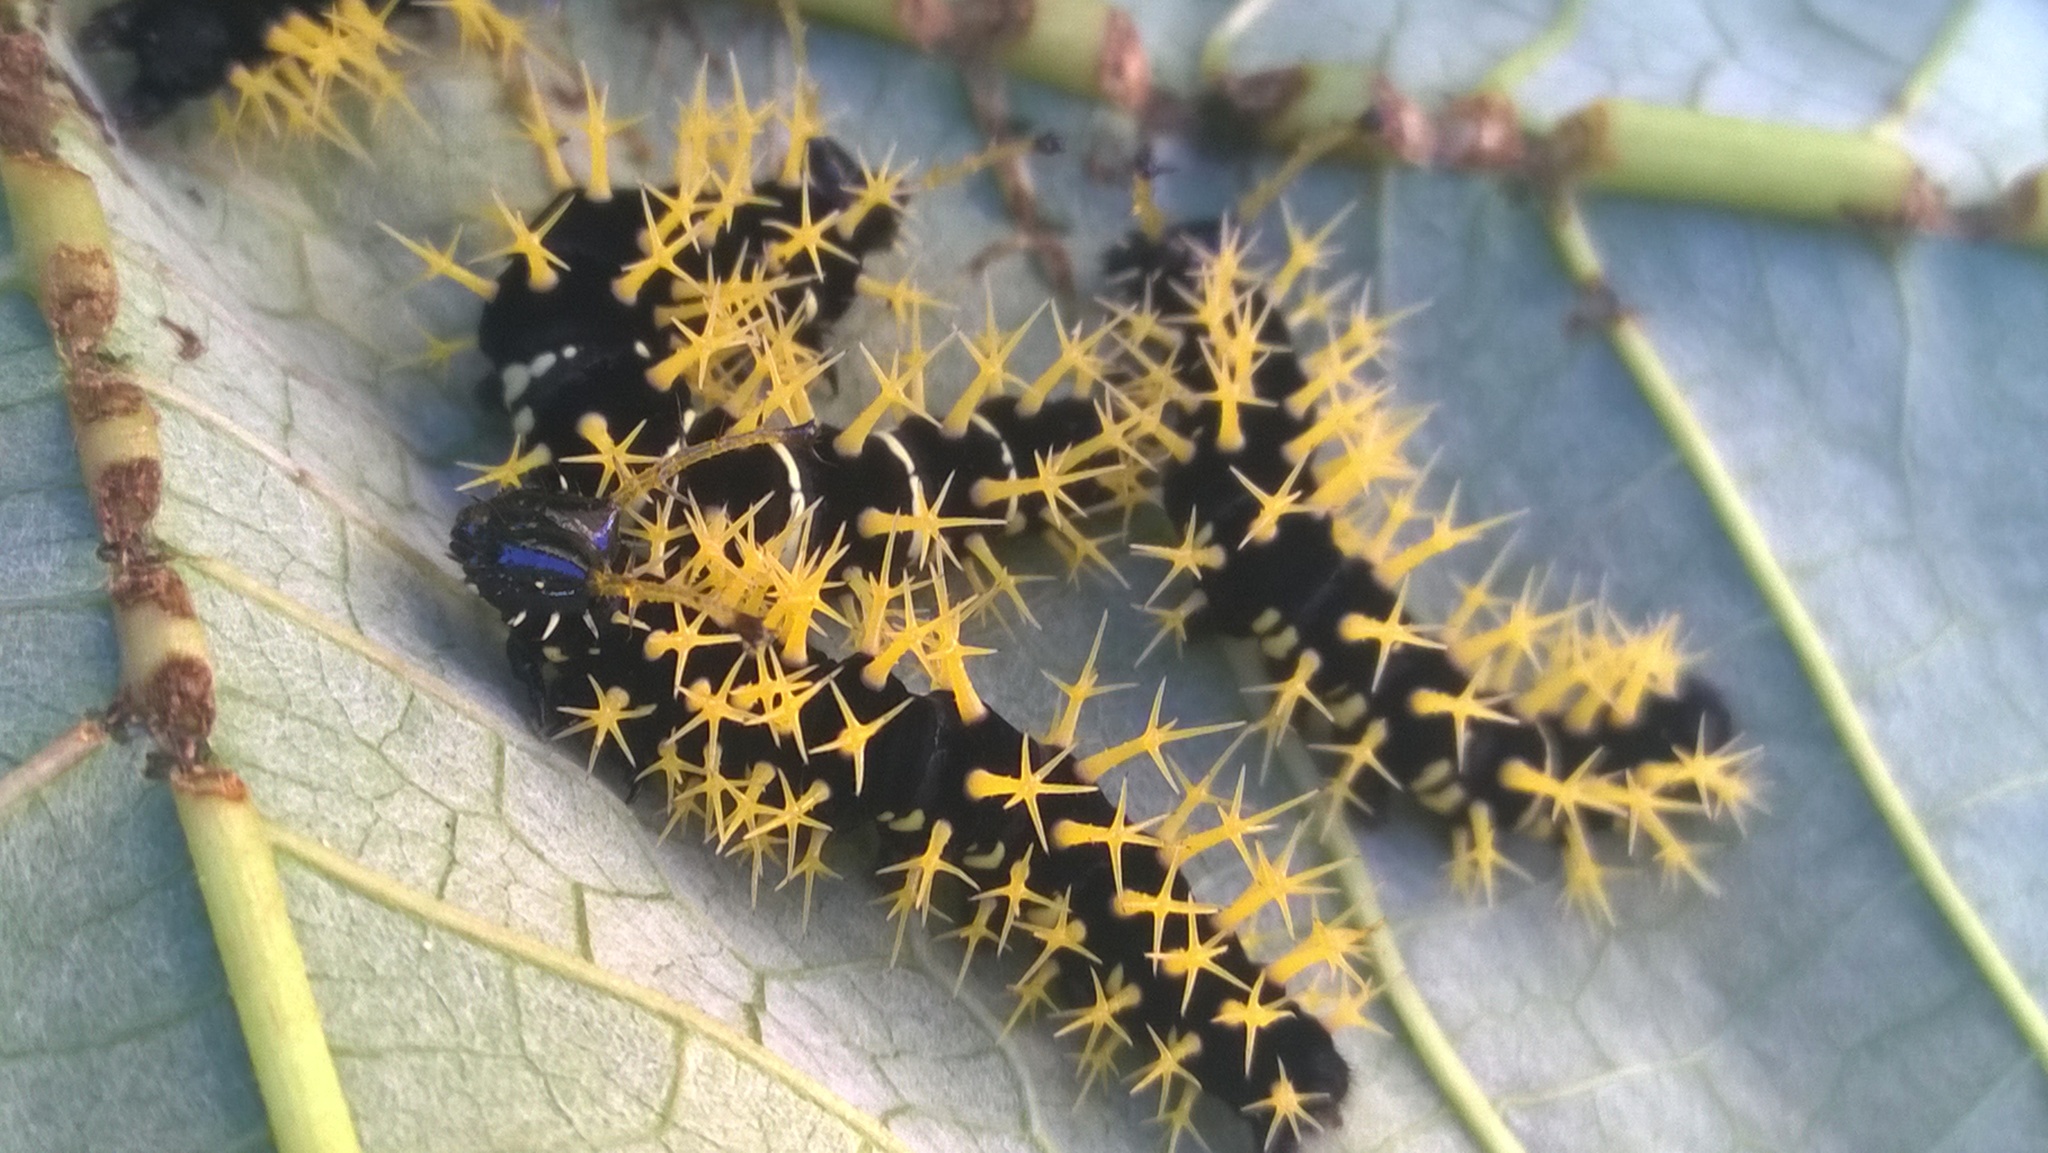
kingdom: Animalia
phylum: Arthropoda
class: Insecta
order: Lepidoptera
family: Nymphalidae
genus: Colobura
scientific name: Colobura dirce
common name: Dirce beauty
